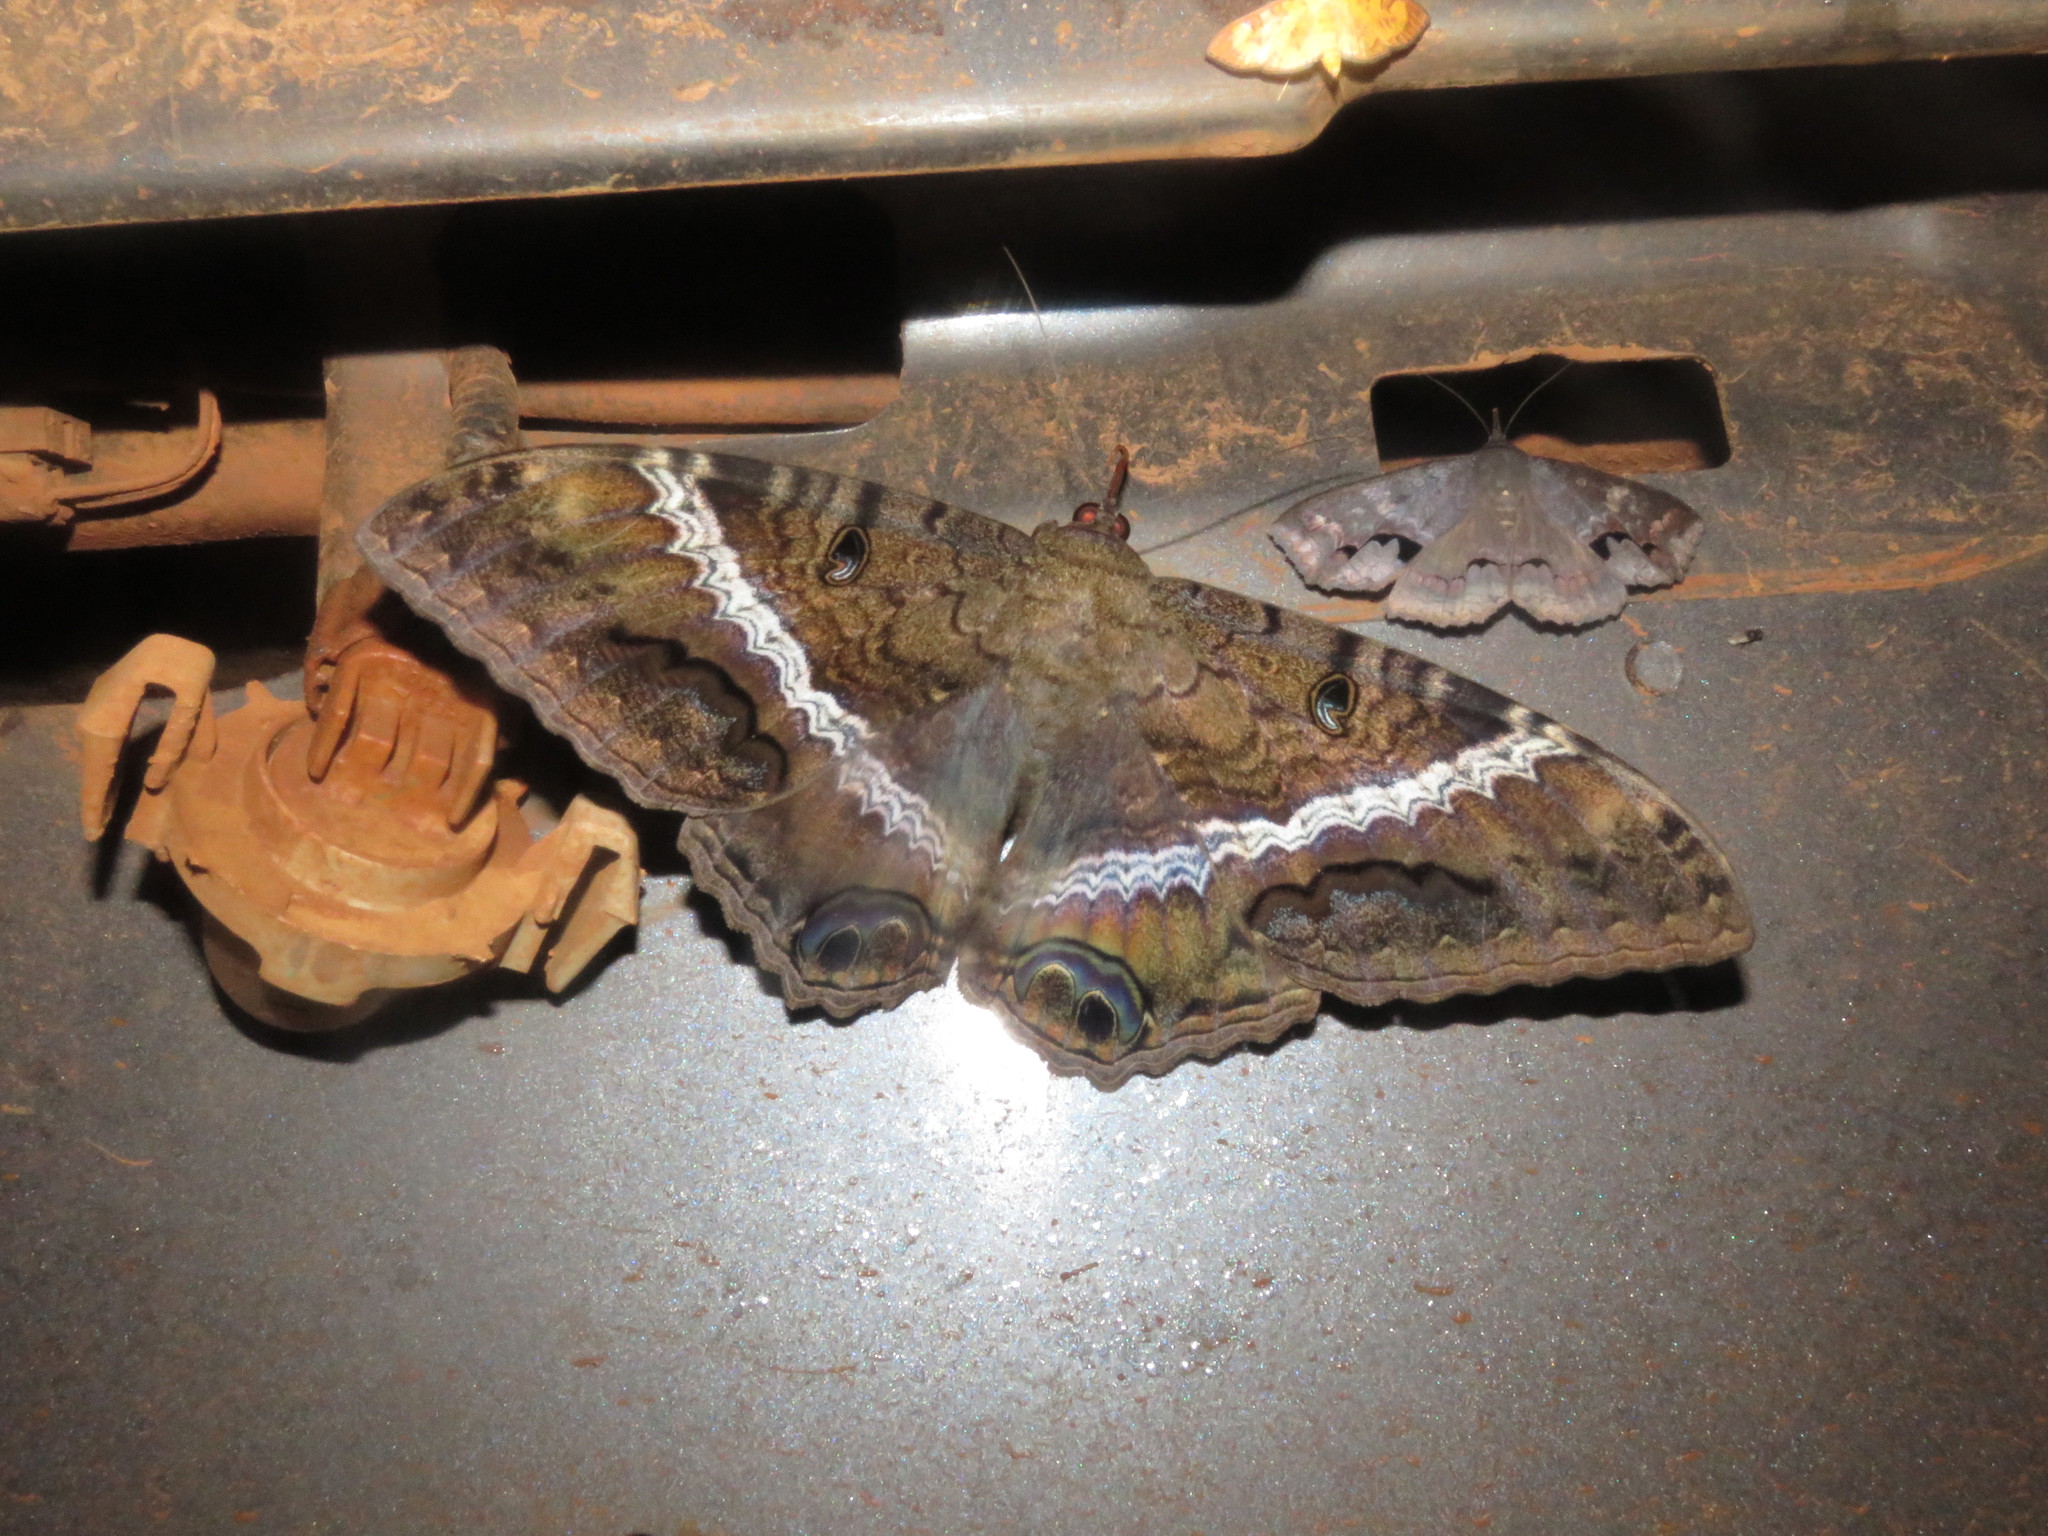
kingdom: Animalia
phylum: Arthropoda
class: Insecta
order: Lepidoptera
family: Erebidae
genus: Ascalapha
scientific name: Ascalapha odorata
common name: Black witch
